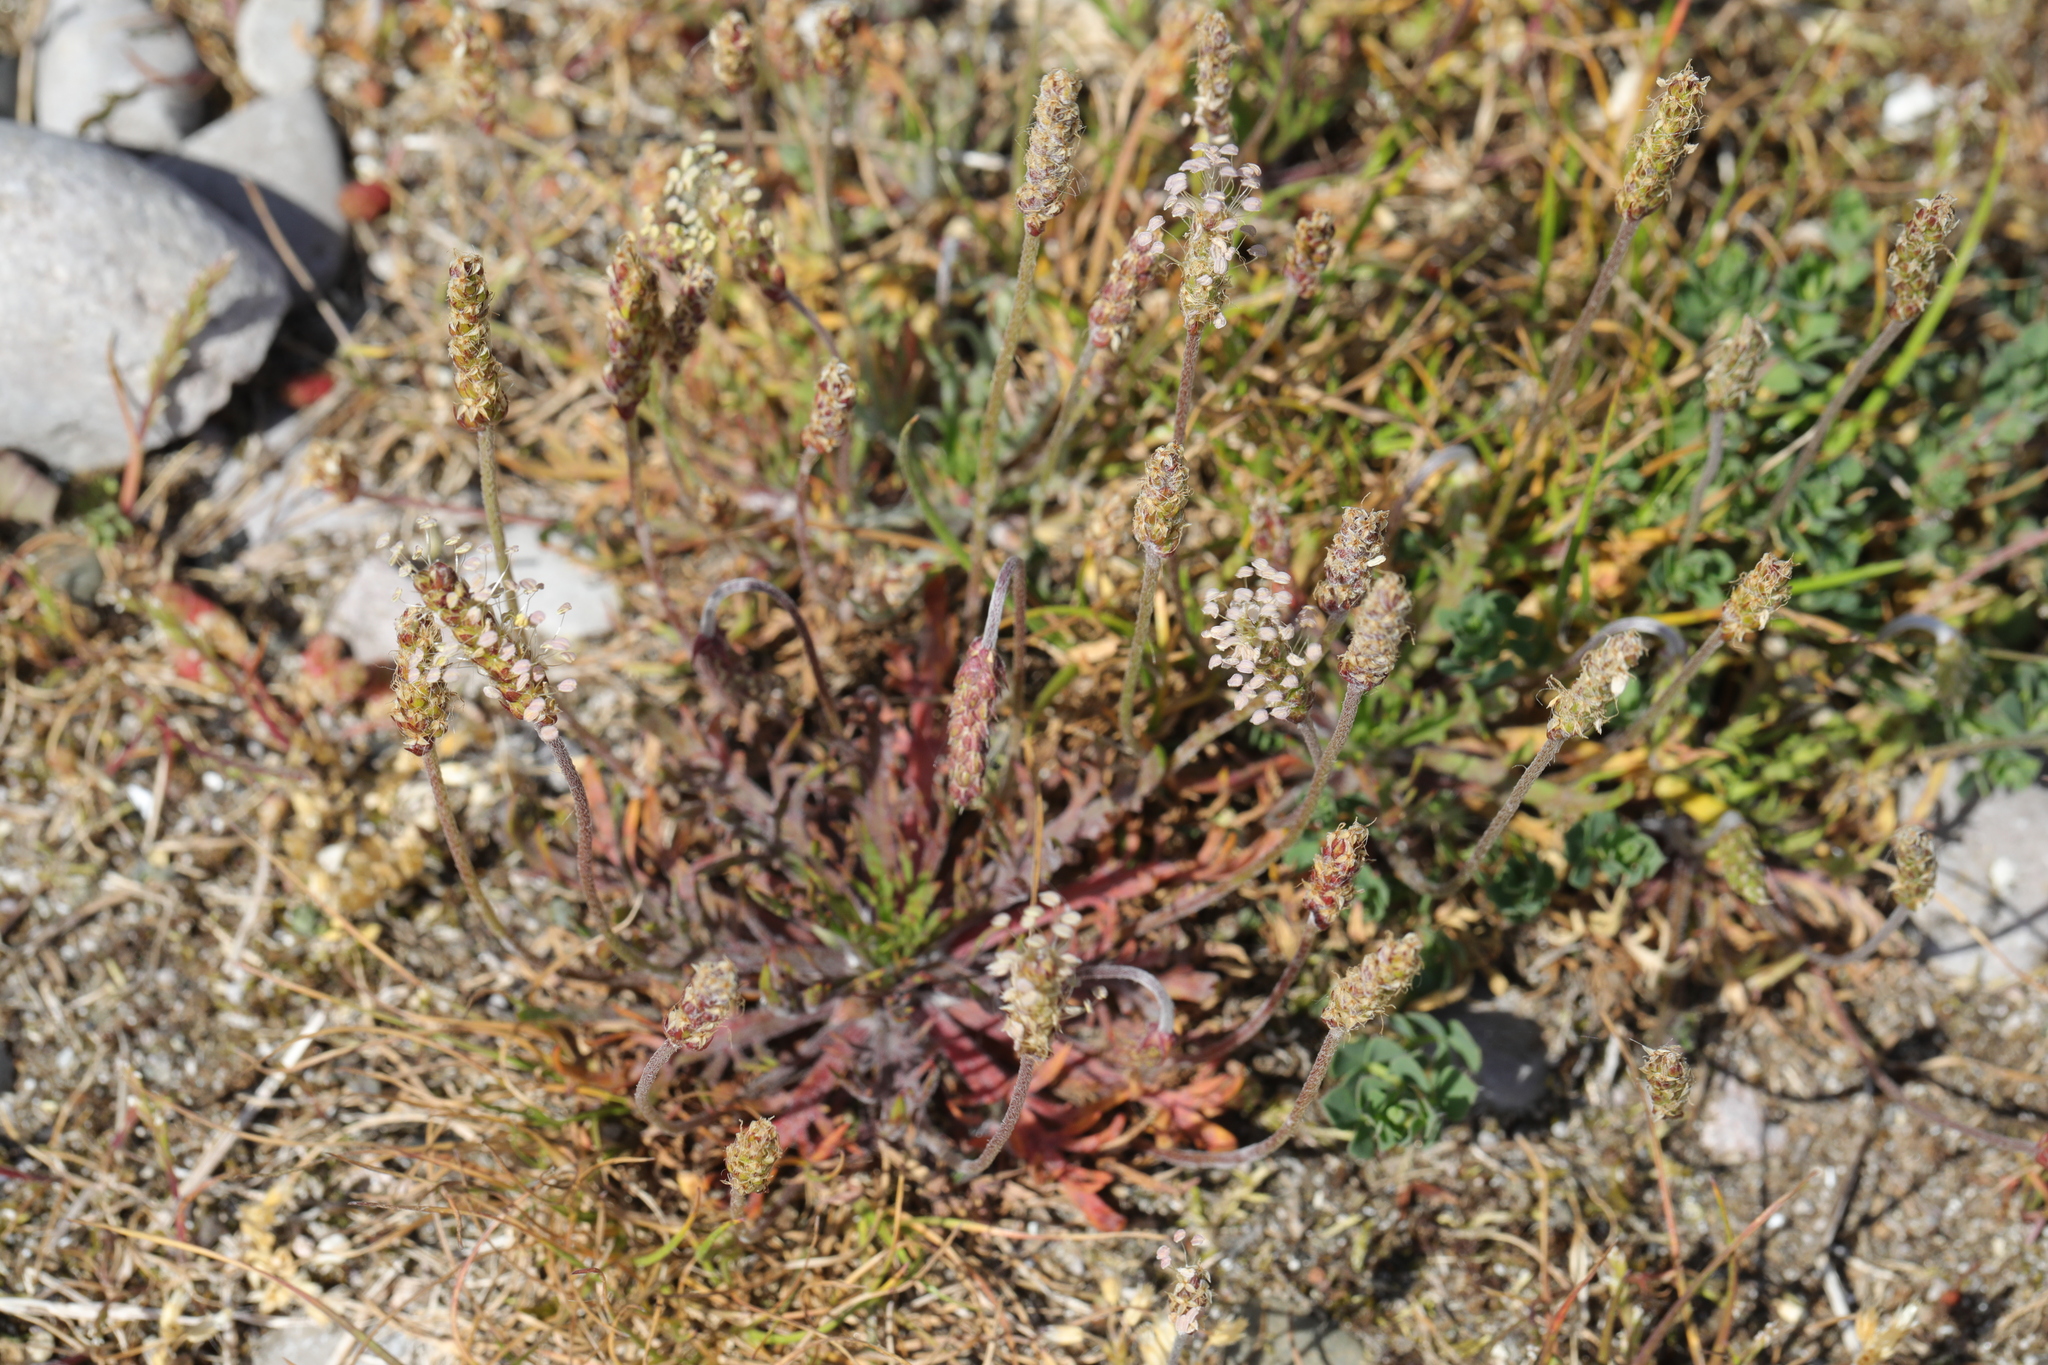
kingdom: Plantae
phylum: Tracheophyta
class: Magnoliopsida
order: Lamiales
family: Plantaginaceae
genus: Plantago
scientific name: Plantago coronopus
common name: Buck's-horn plantain
